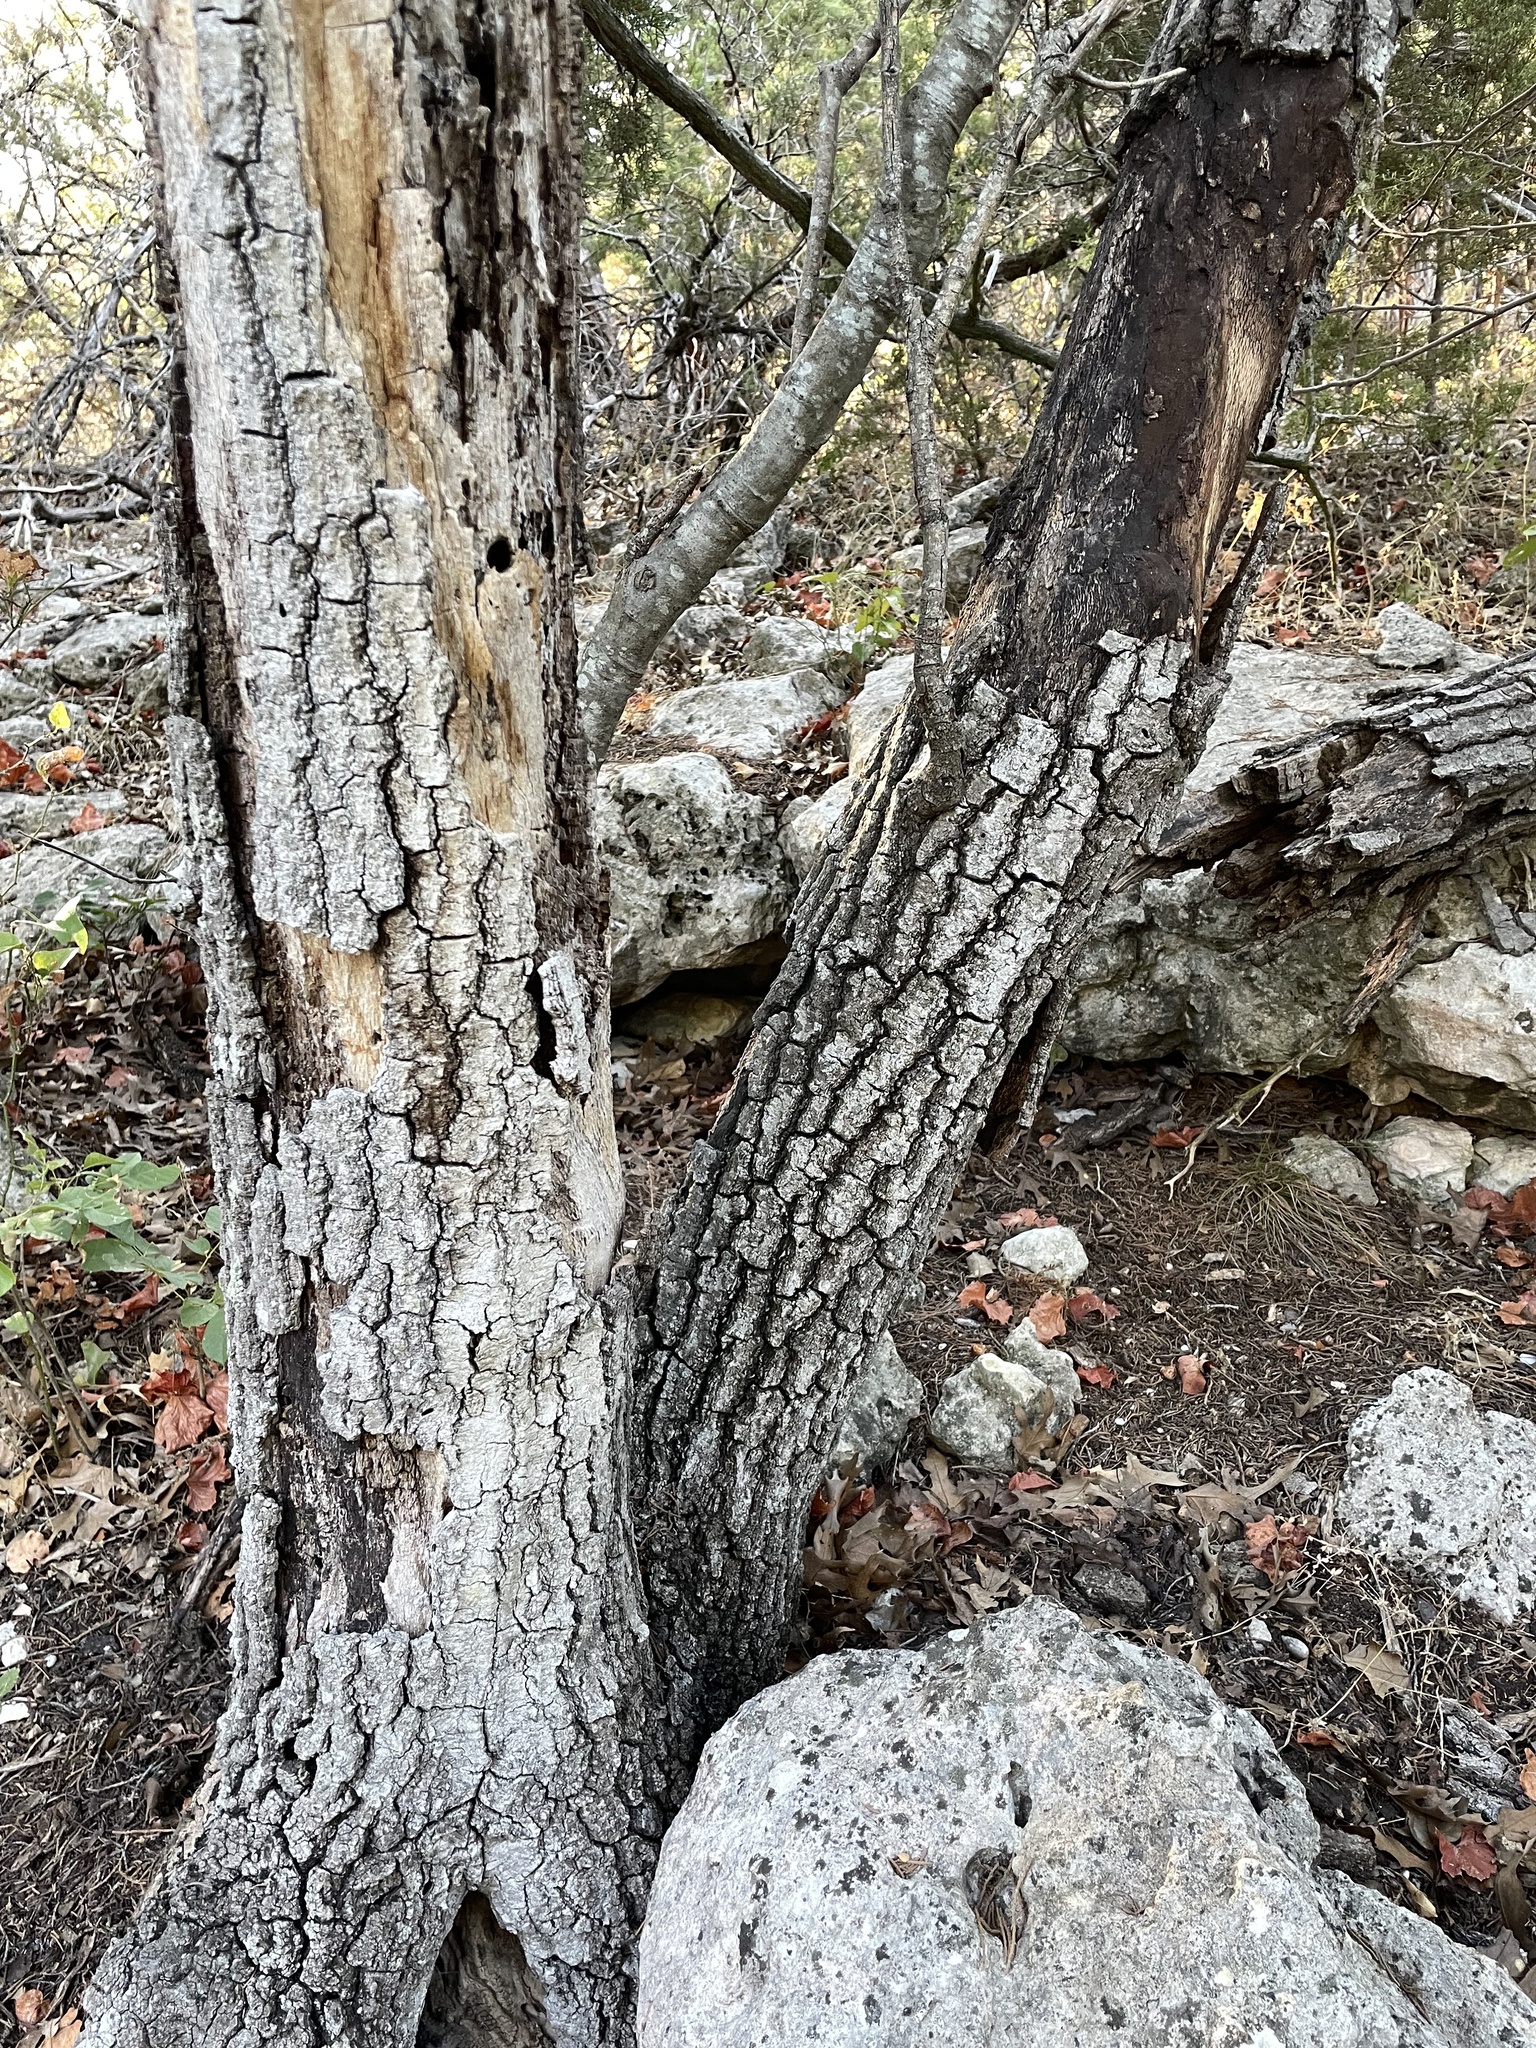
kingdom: Plantae
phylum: Tracheophyta
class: Magnoliopsida
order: Fagales
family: Fagaceae
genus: Quercus
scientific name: Quercus buckleyi
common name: Buckley oak
